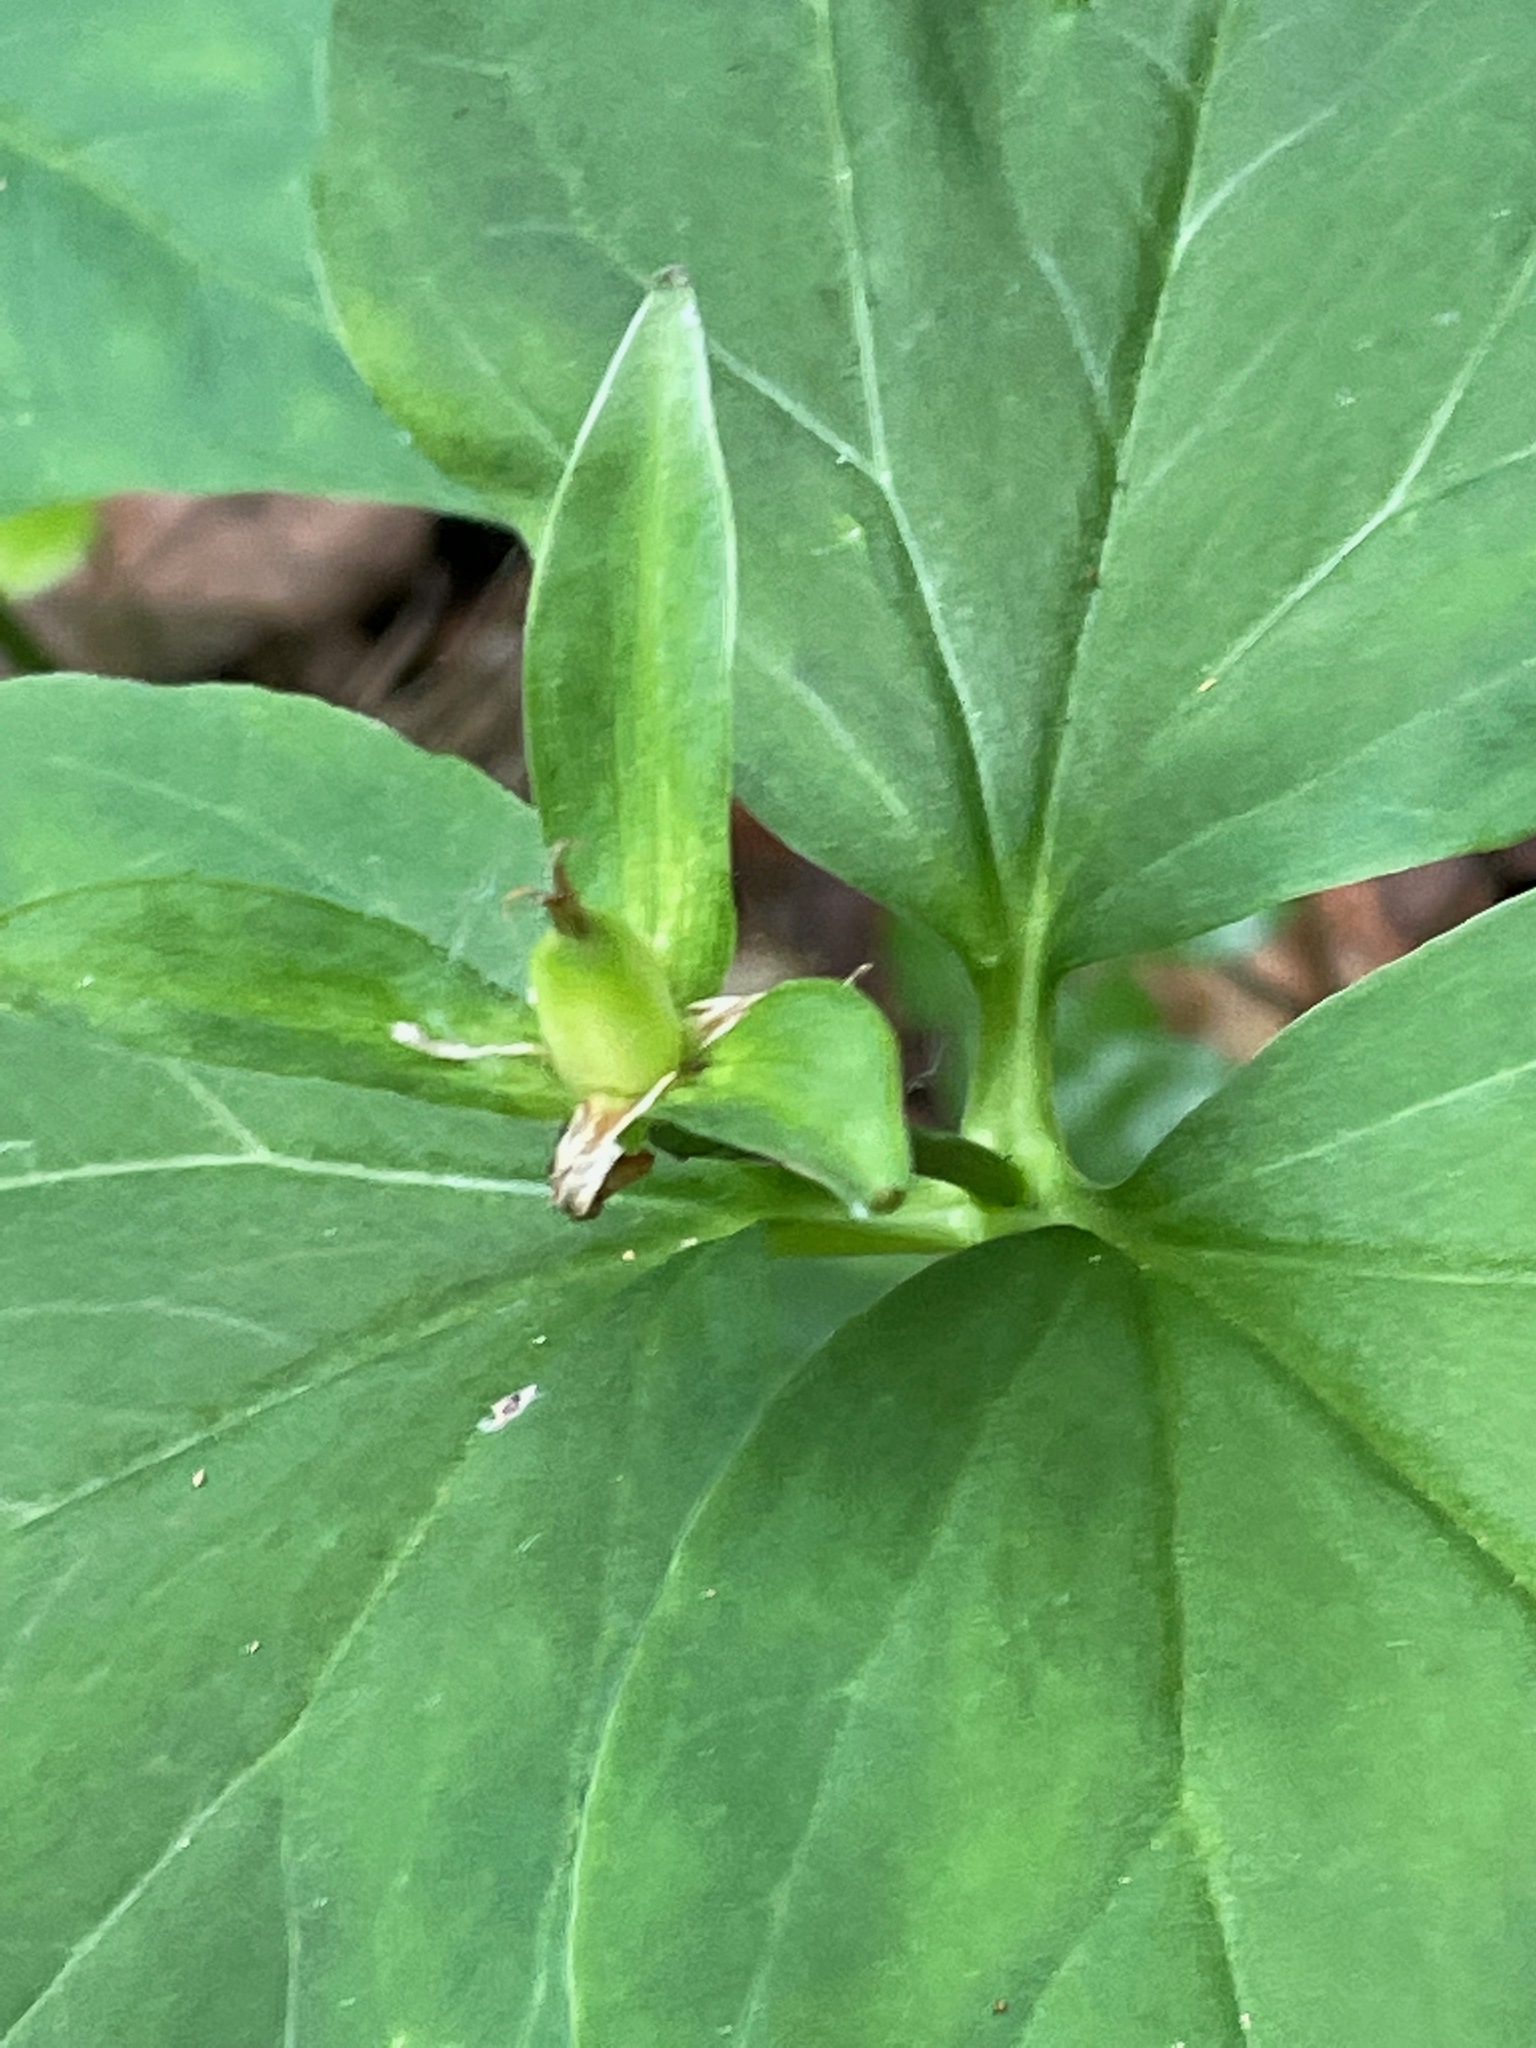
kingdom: Plantae
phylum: Tracheophyta
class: Liliopsida
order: Liliales
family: Melanthiaceae
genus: Trillium
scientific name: Trillium undulatum
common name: Paint trillium
